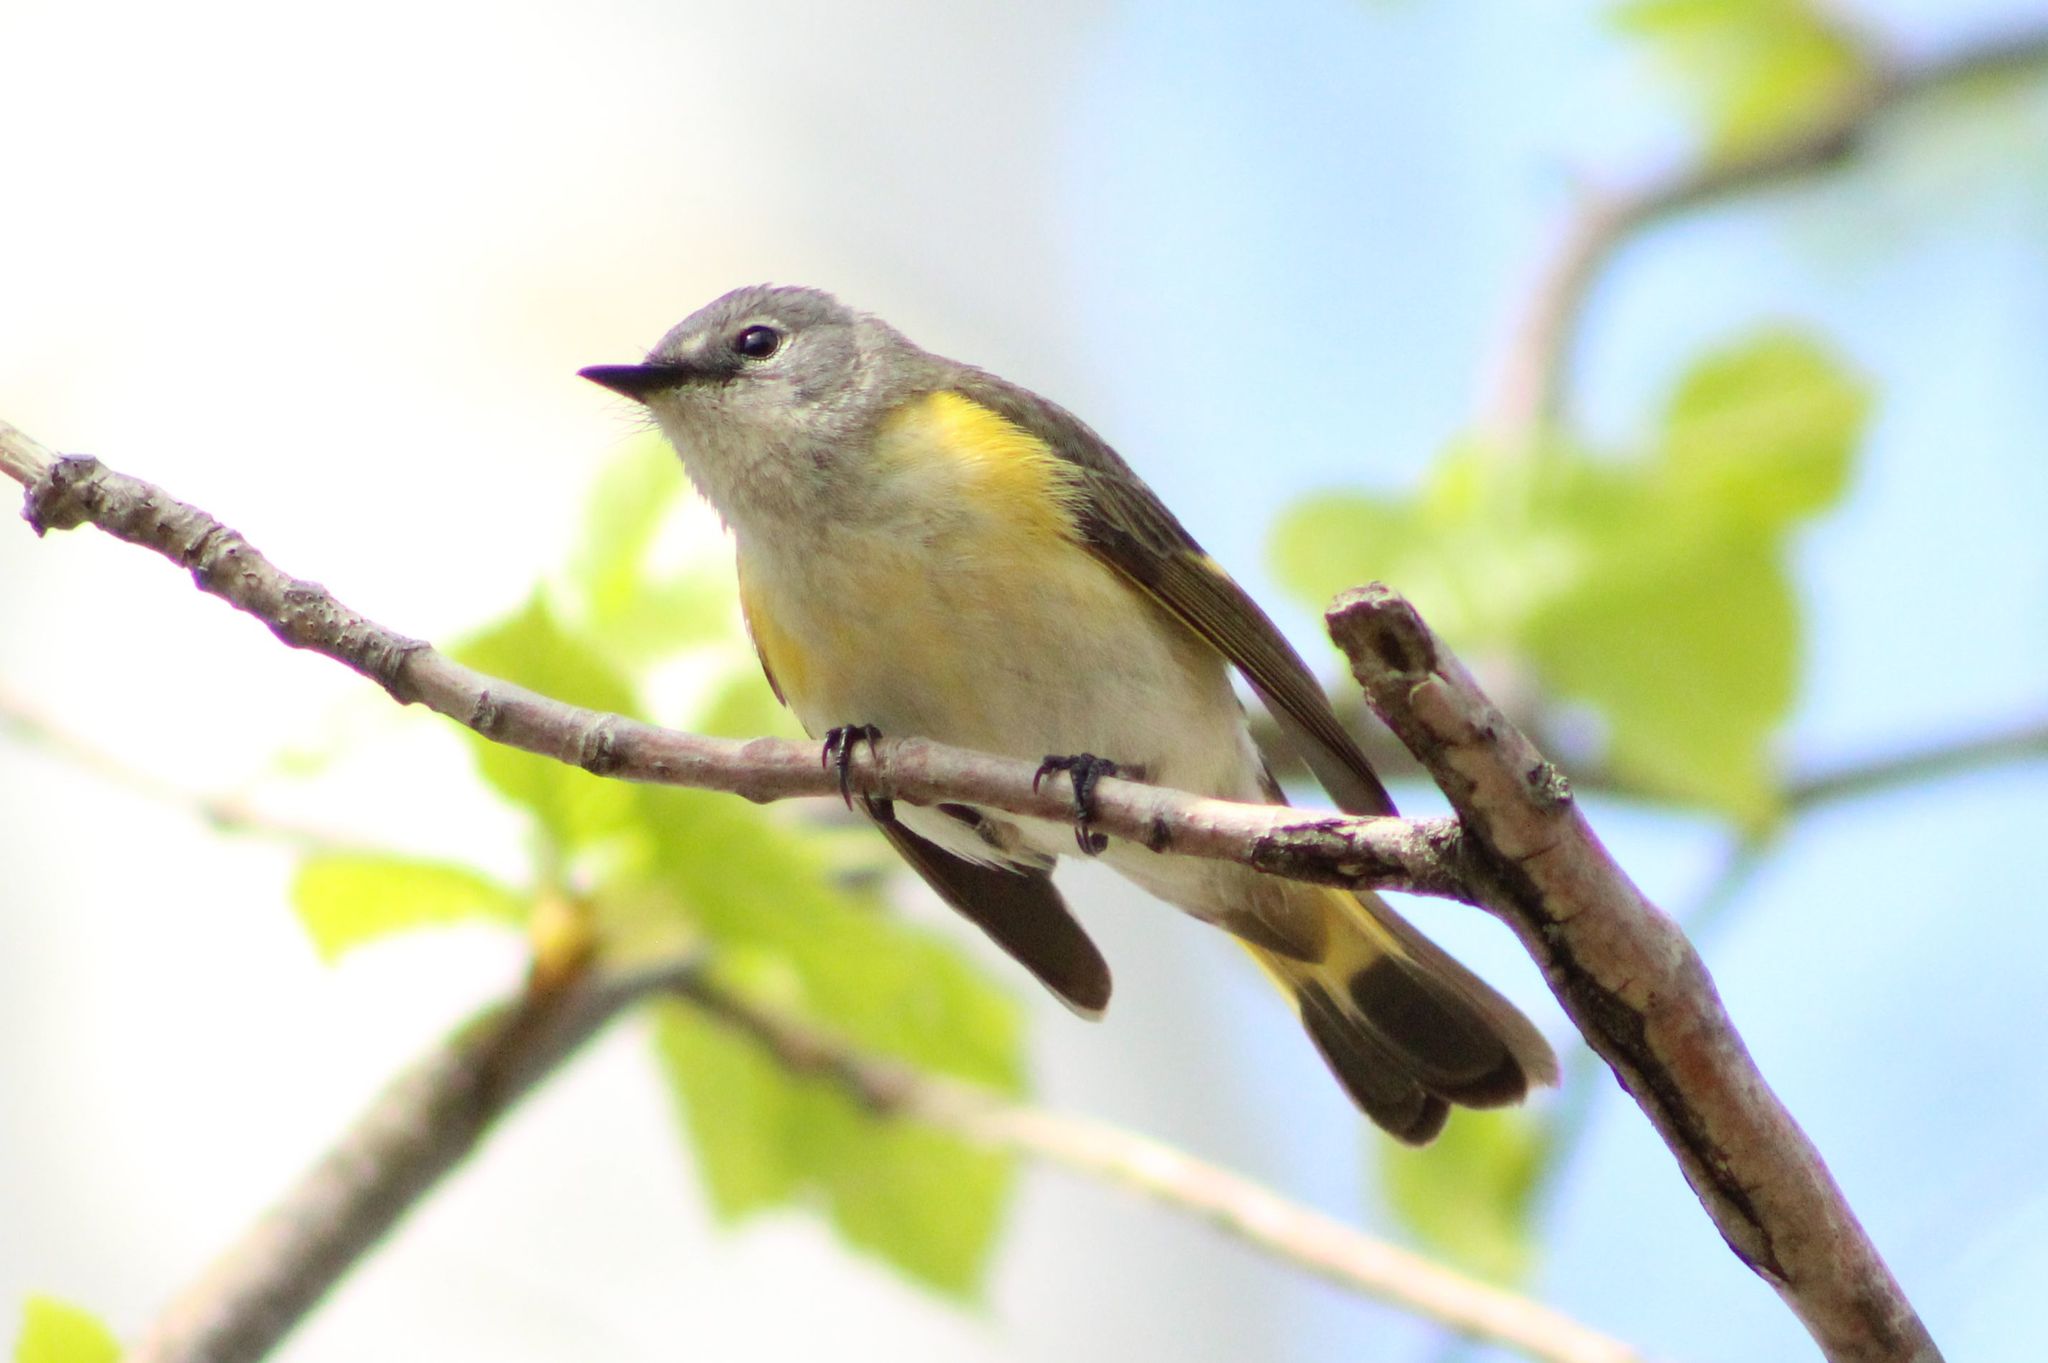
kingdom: Animalia
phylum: Chordata
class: Aves
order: Passeriformes
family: Parulidae
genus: Setophaga
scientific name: Setophaga ruticilla
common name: American redstart
